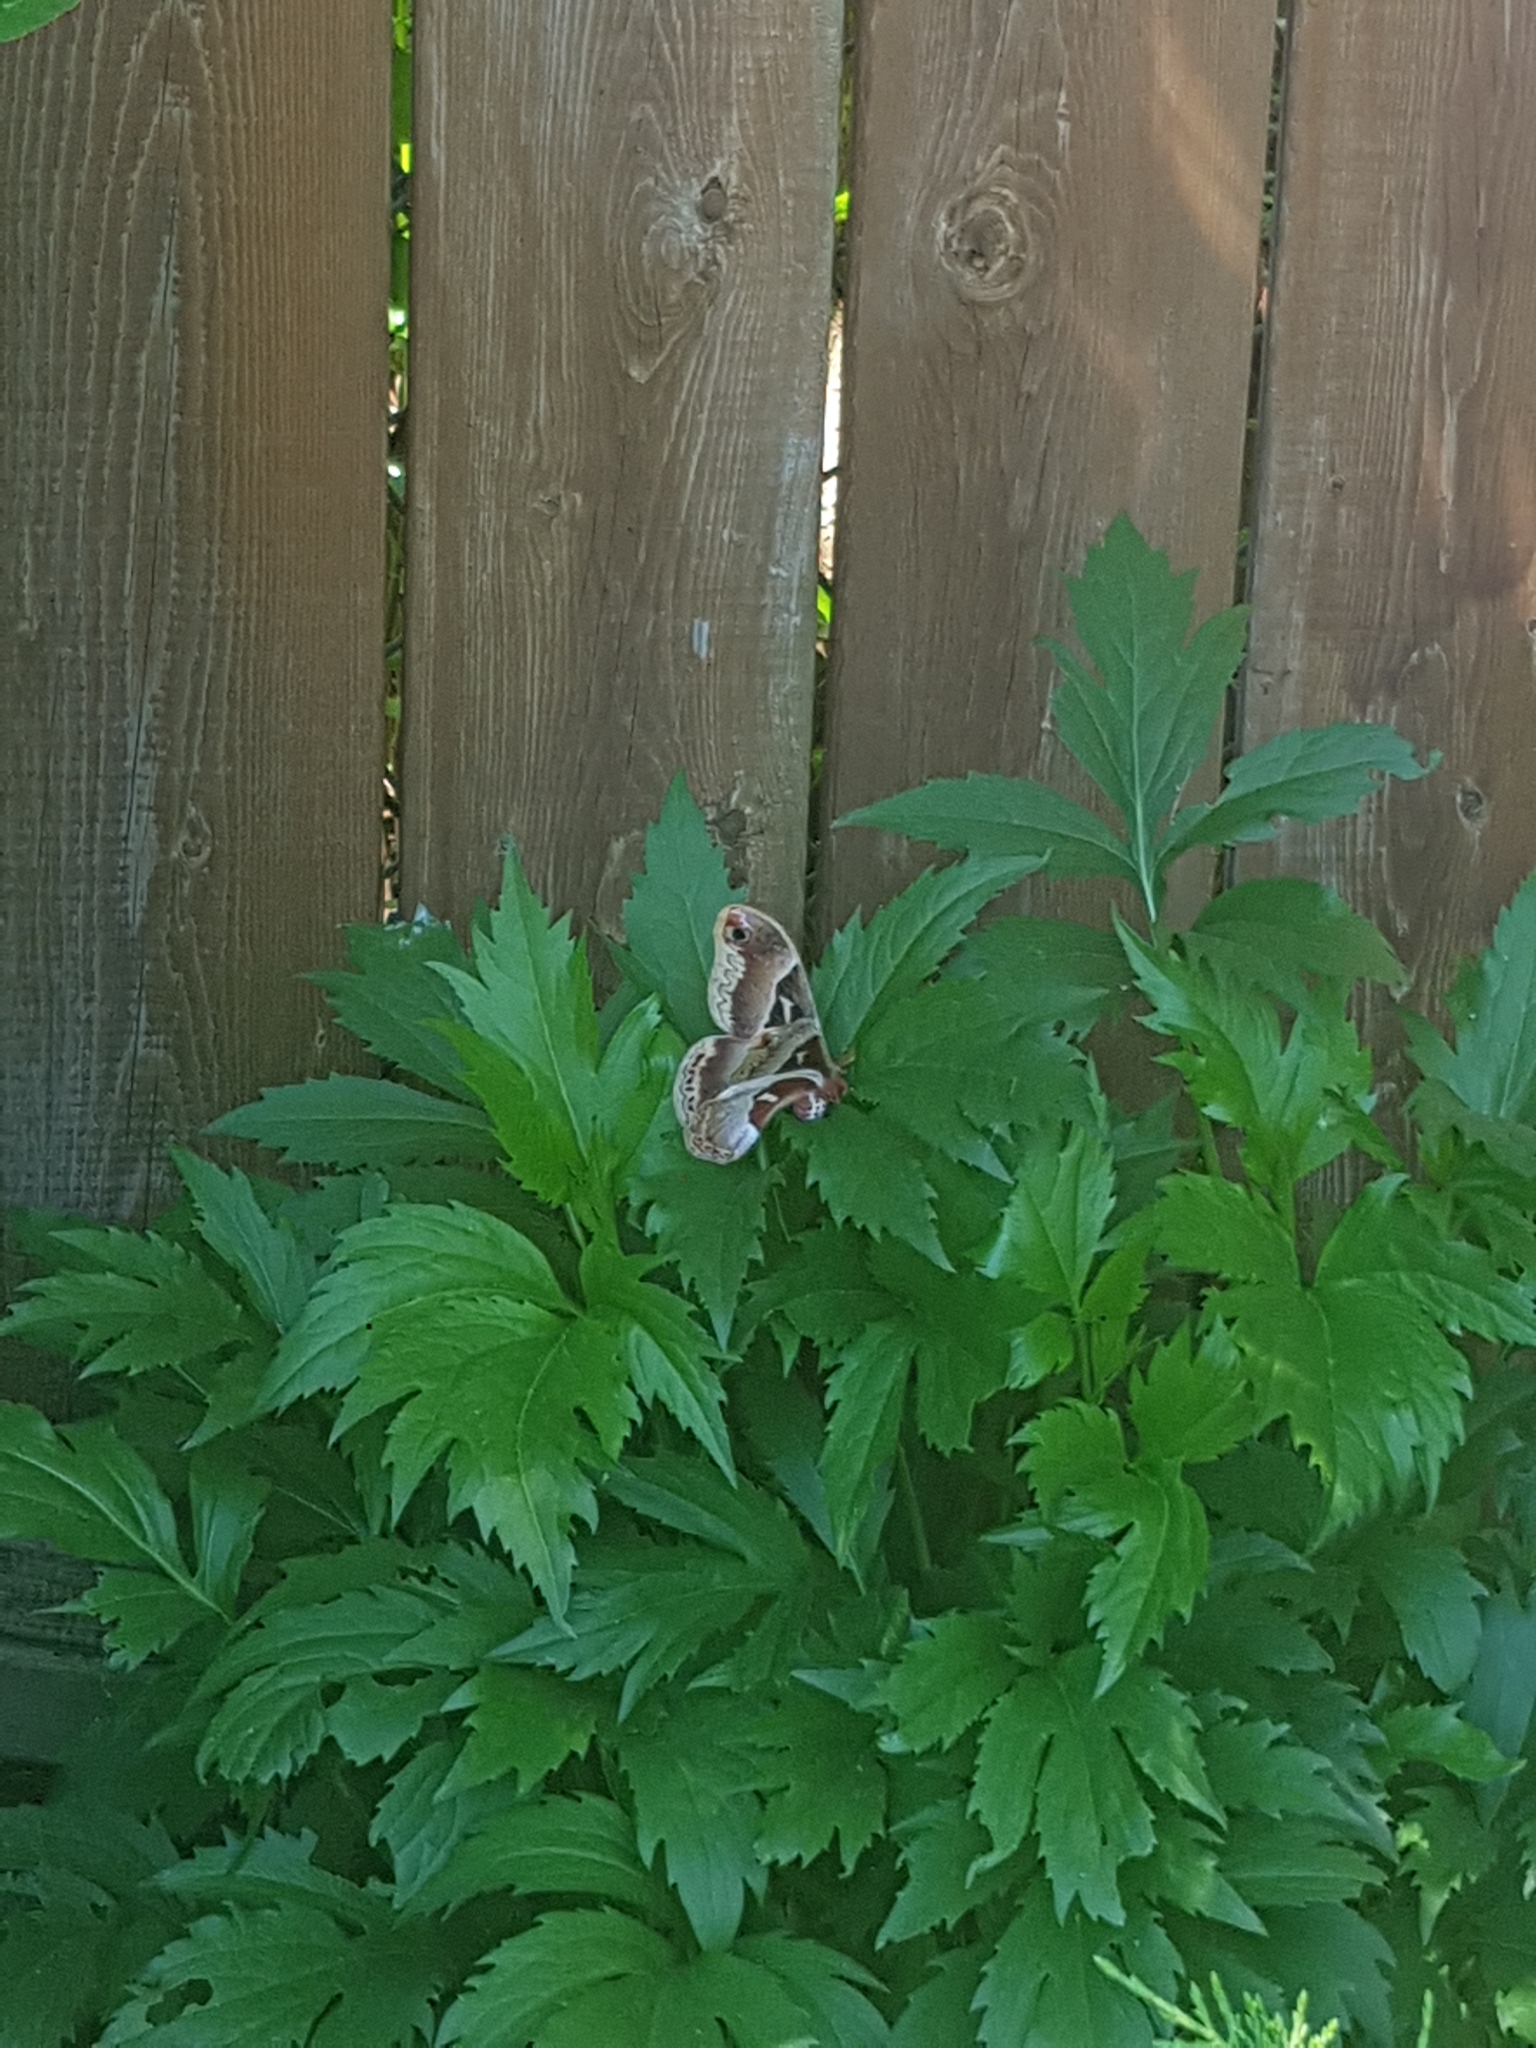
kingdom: Animalia
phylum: Arthropoda
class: Insecta
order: Lepidoptera
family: Saturniidae
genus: Callosamia
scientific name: Callosamia promethea
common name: Promethea silkmoth
